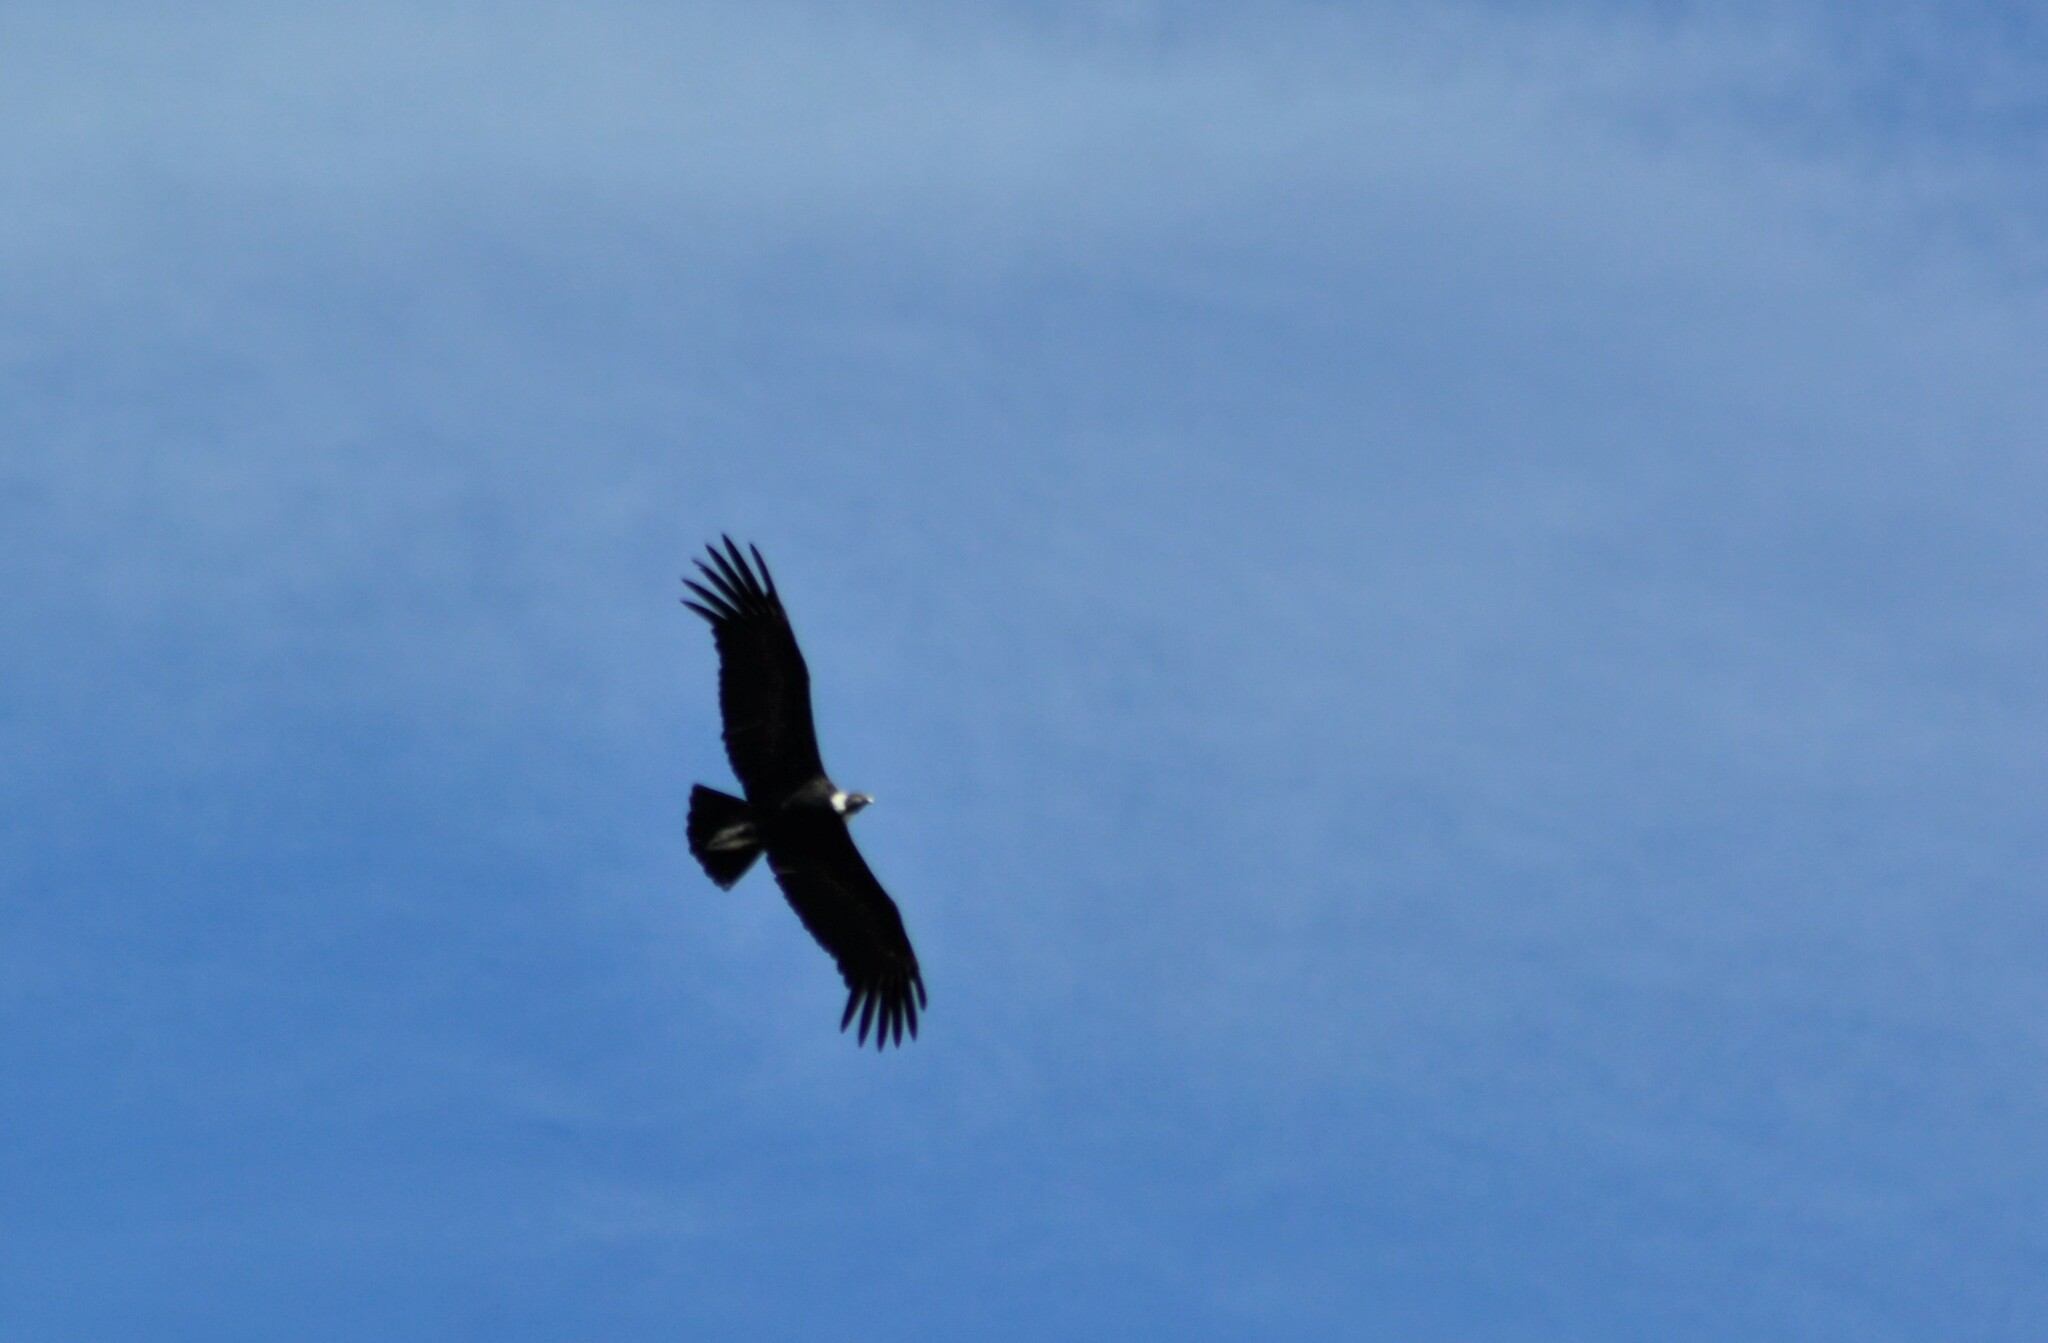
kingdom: Animalia
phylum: Chordata
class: Aves
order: Accipitriformes
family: Cathartidae
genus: Vultur
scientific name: Vultur gryphus
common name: Andean condor
